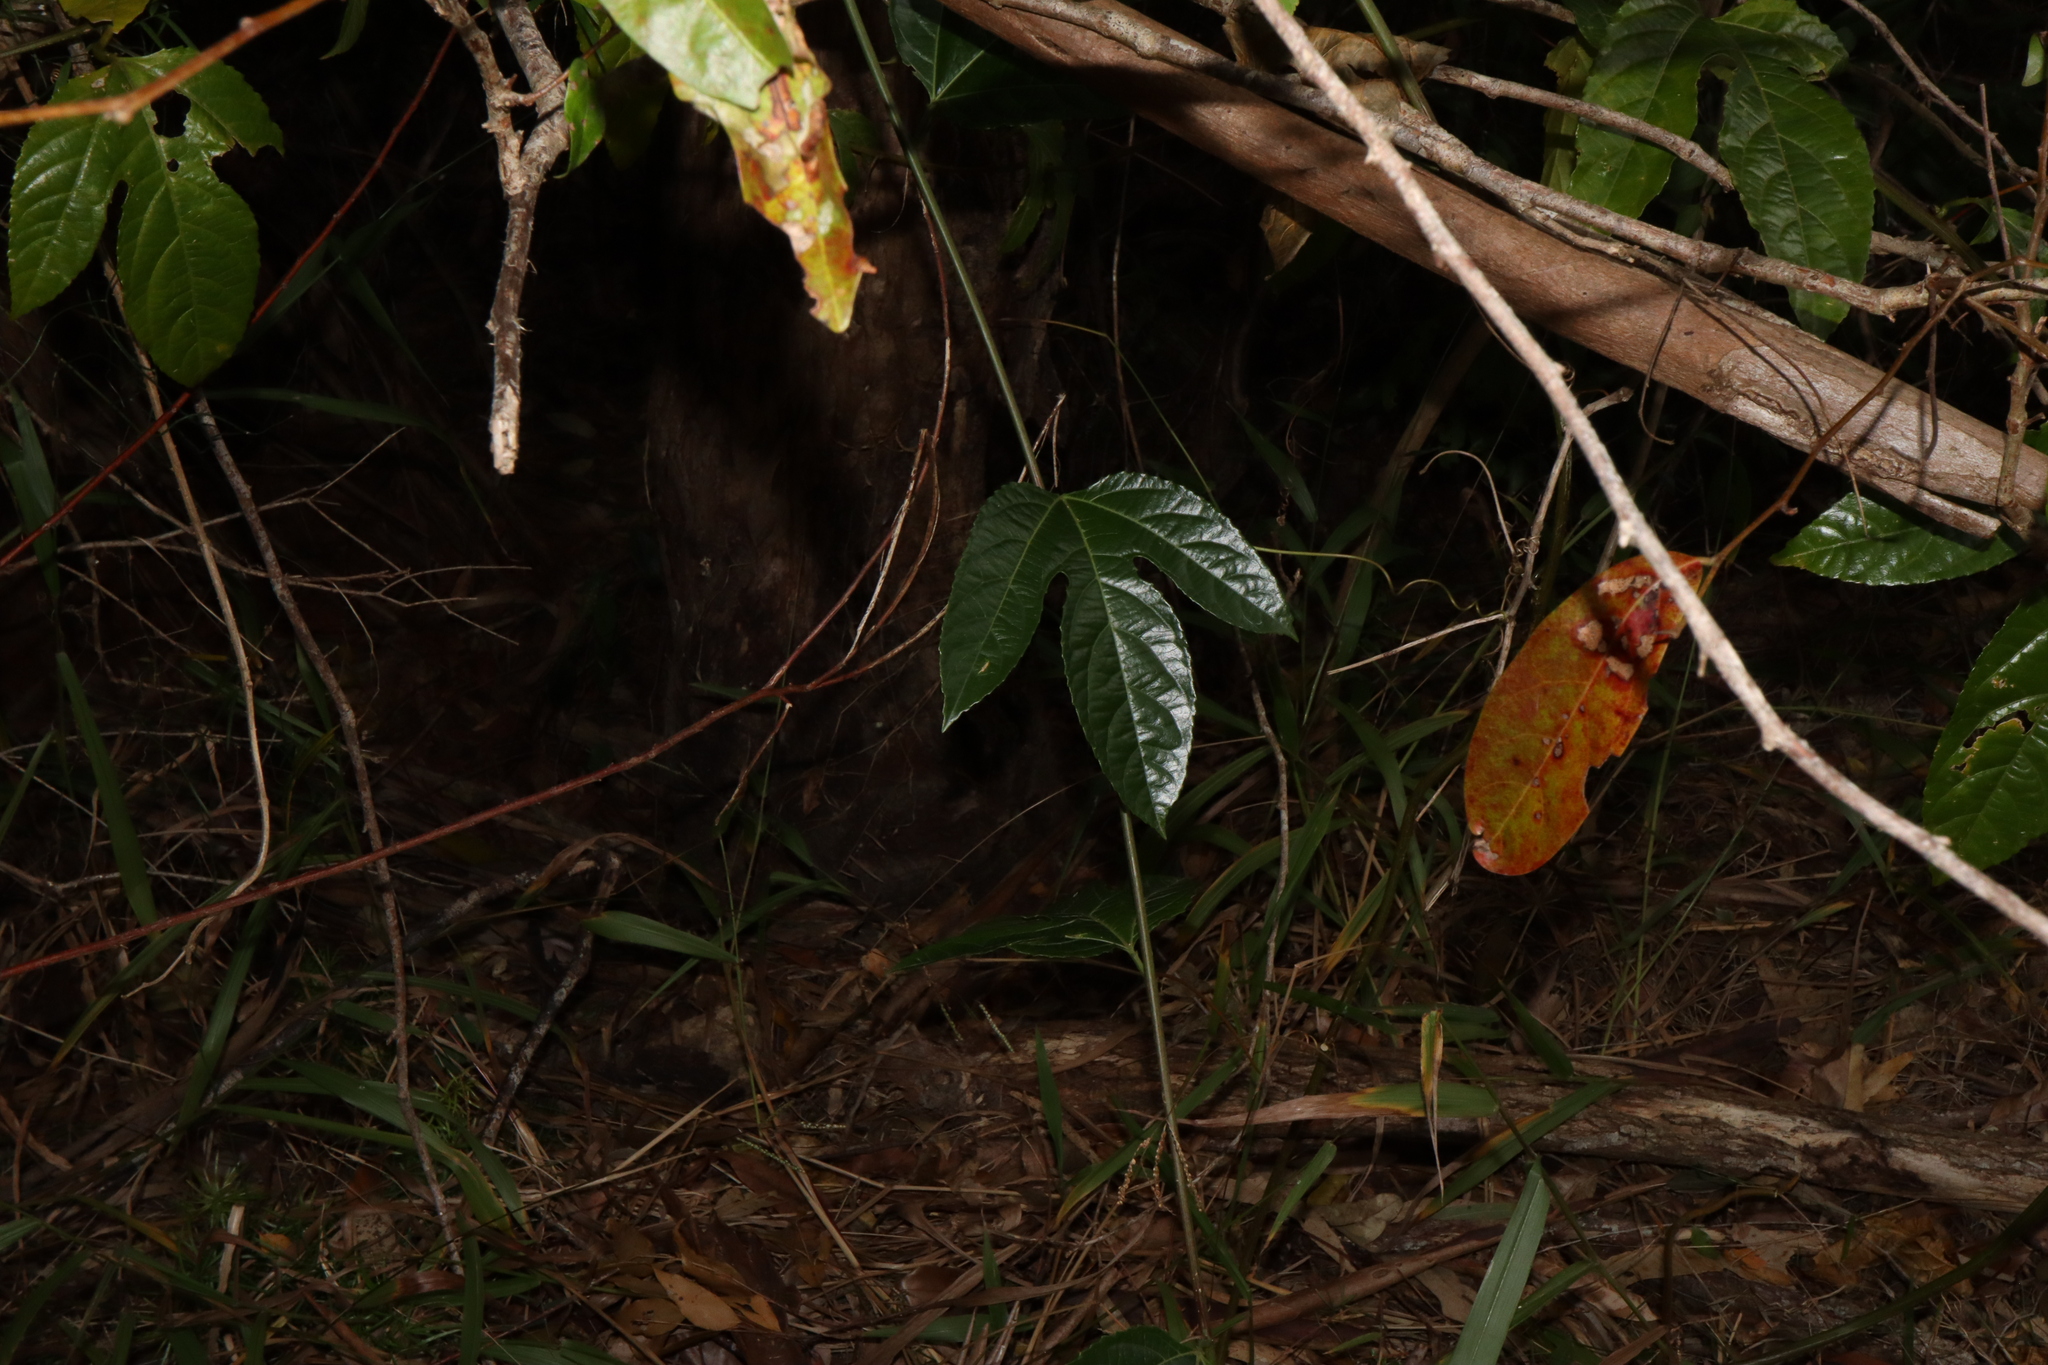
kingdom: Plantae
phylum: Tracheophyta
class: Magnoliopsida
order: Malpighiales
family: Passifloraceae
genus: Passiflora
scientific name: Passiflora edulis
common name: Purple granadilla
